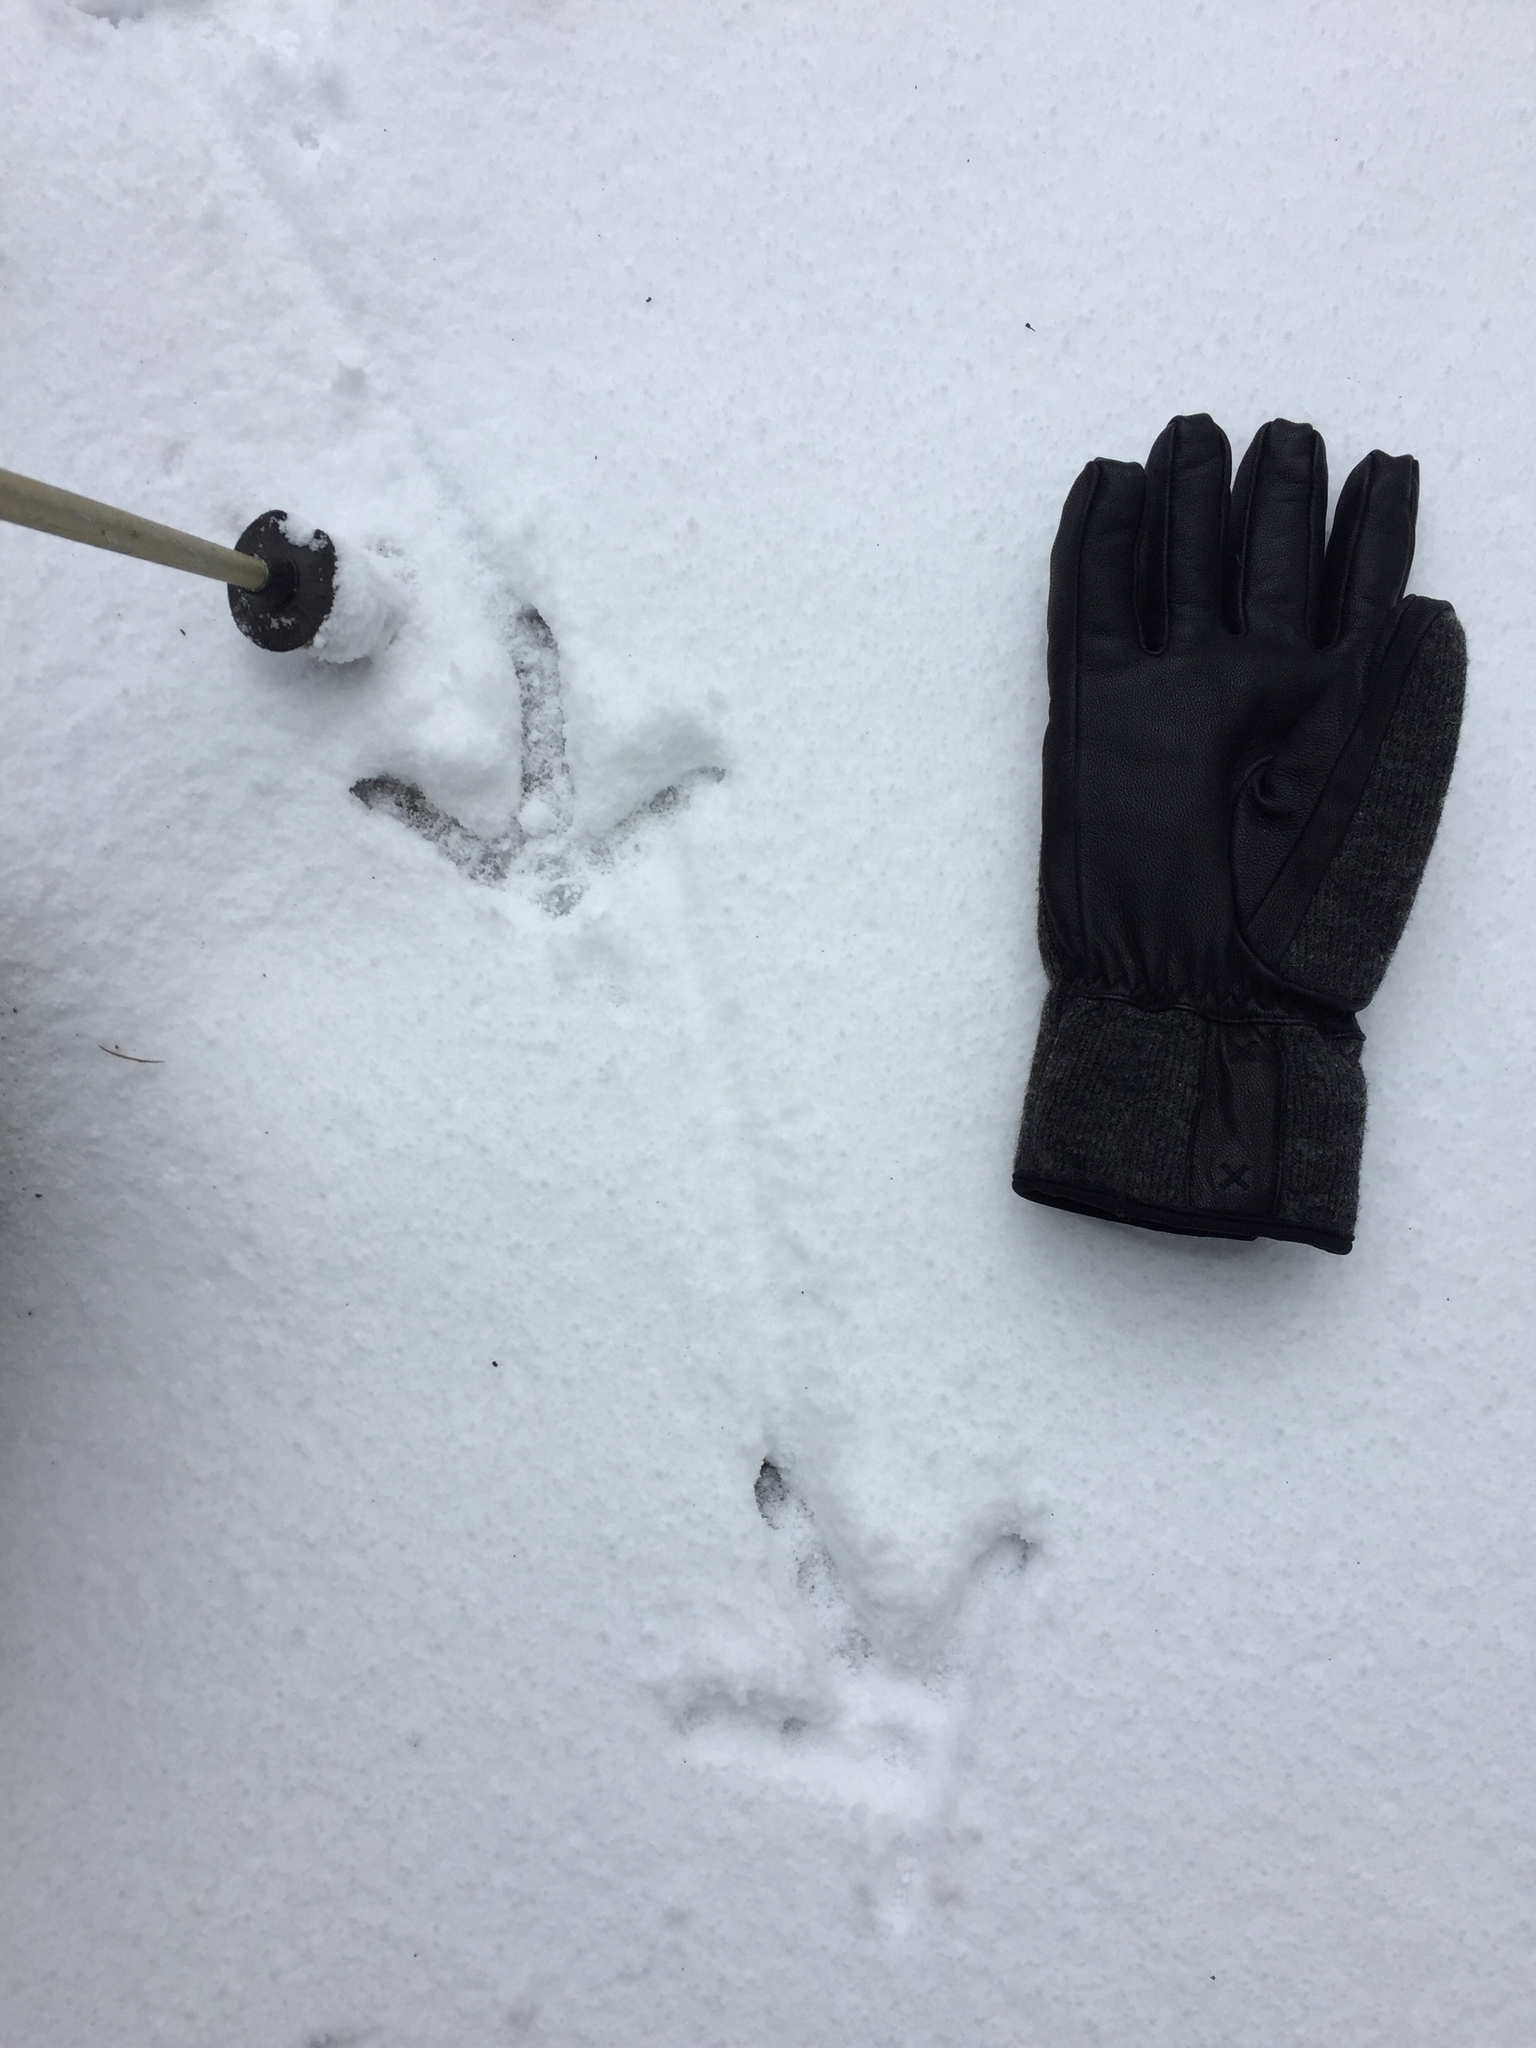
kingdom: Animalia
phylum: Chordata
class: Aves
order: Galliformes
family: Phasianidae
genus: Meleagris
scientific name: Meleagris gallopavo
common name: Wild turkey
